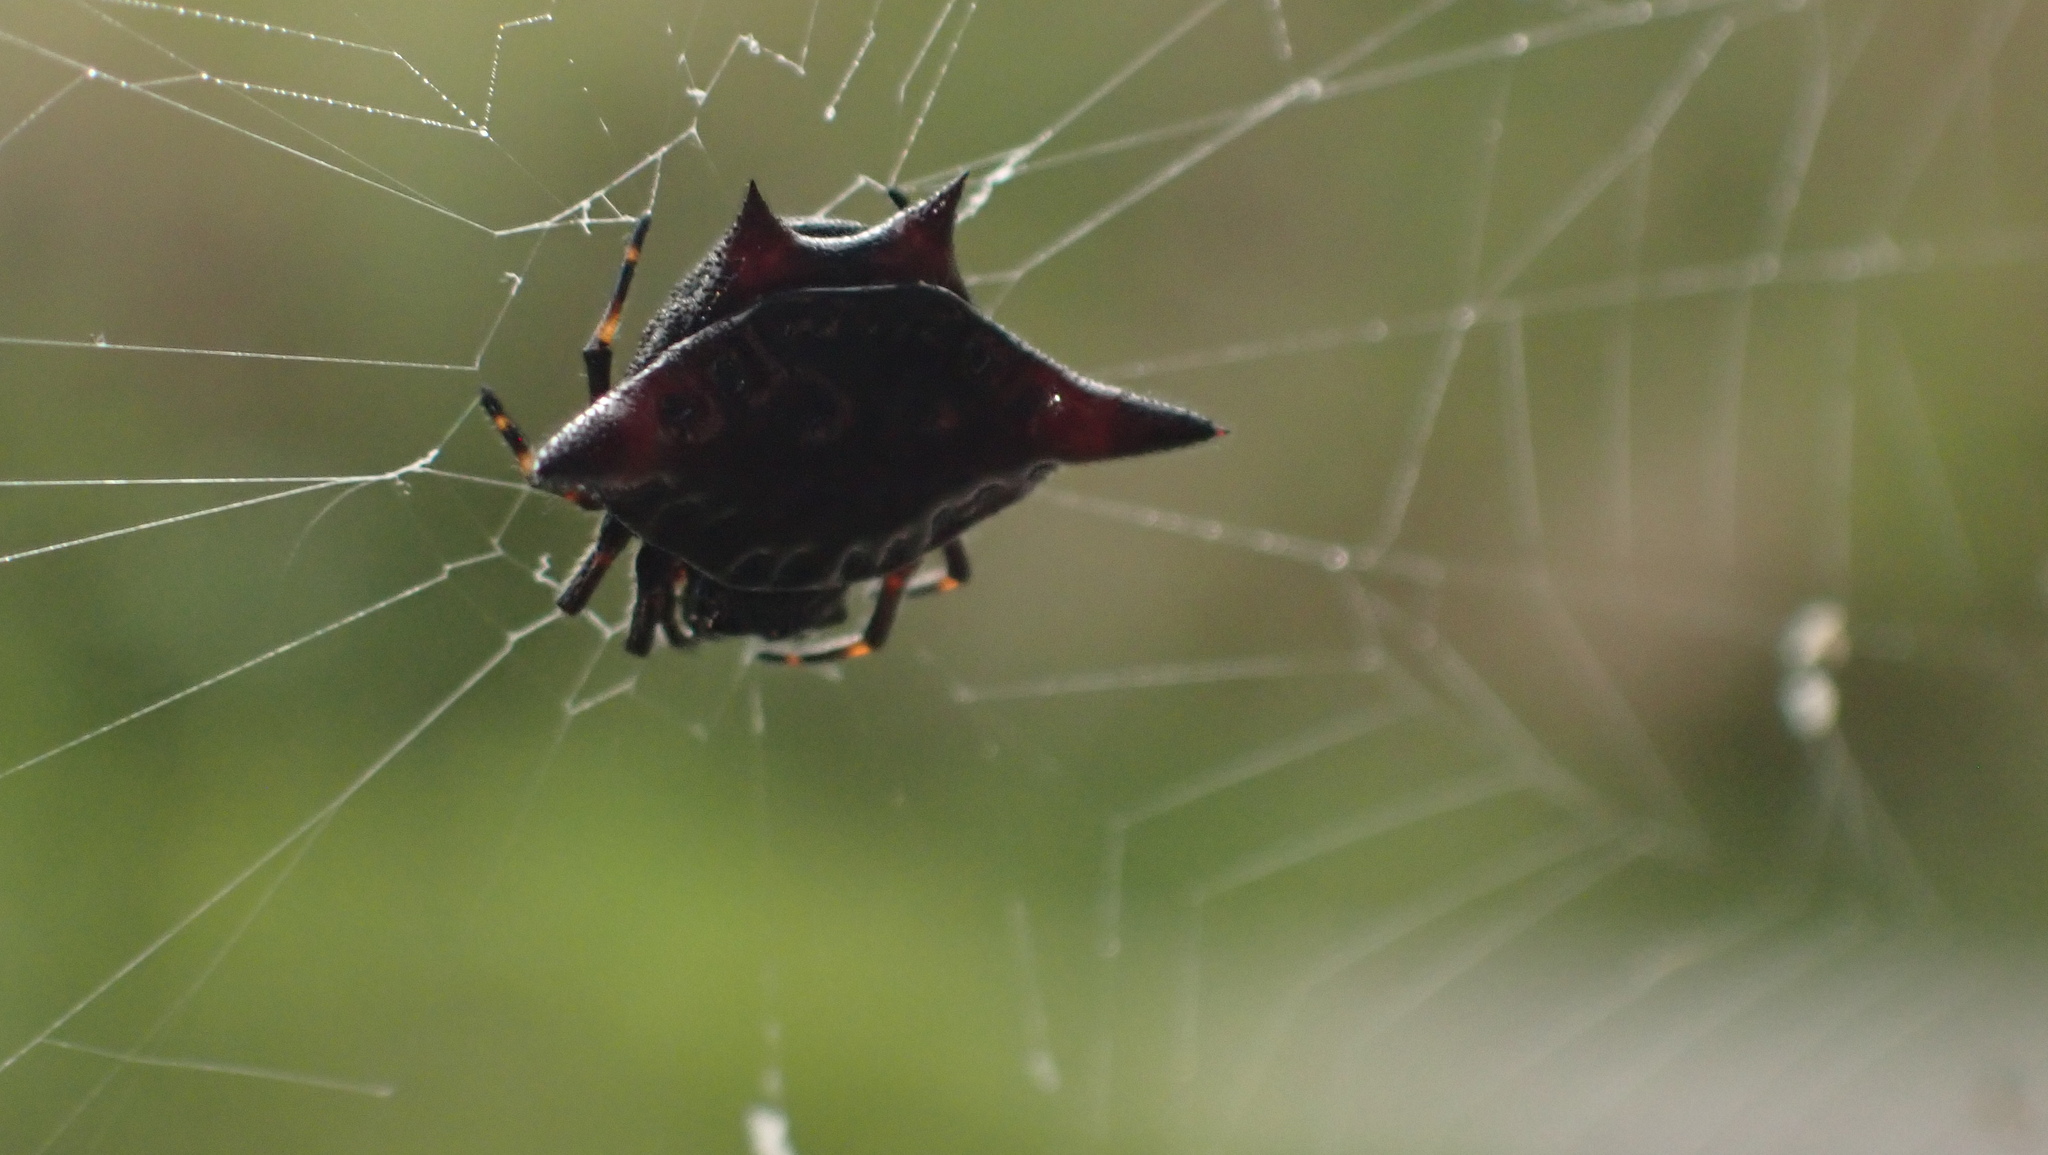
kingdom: Animalia
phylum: Arthropoda
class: Arachnida
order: Araneae
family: Araneidae
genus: Gasteracantha
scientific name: Gasteracantha cancriformis
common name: Orb weavers
